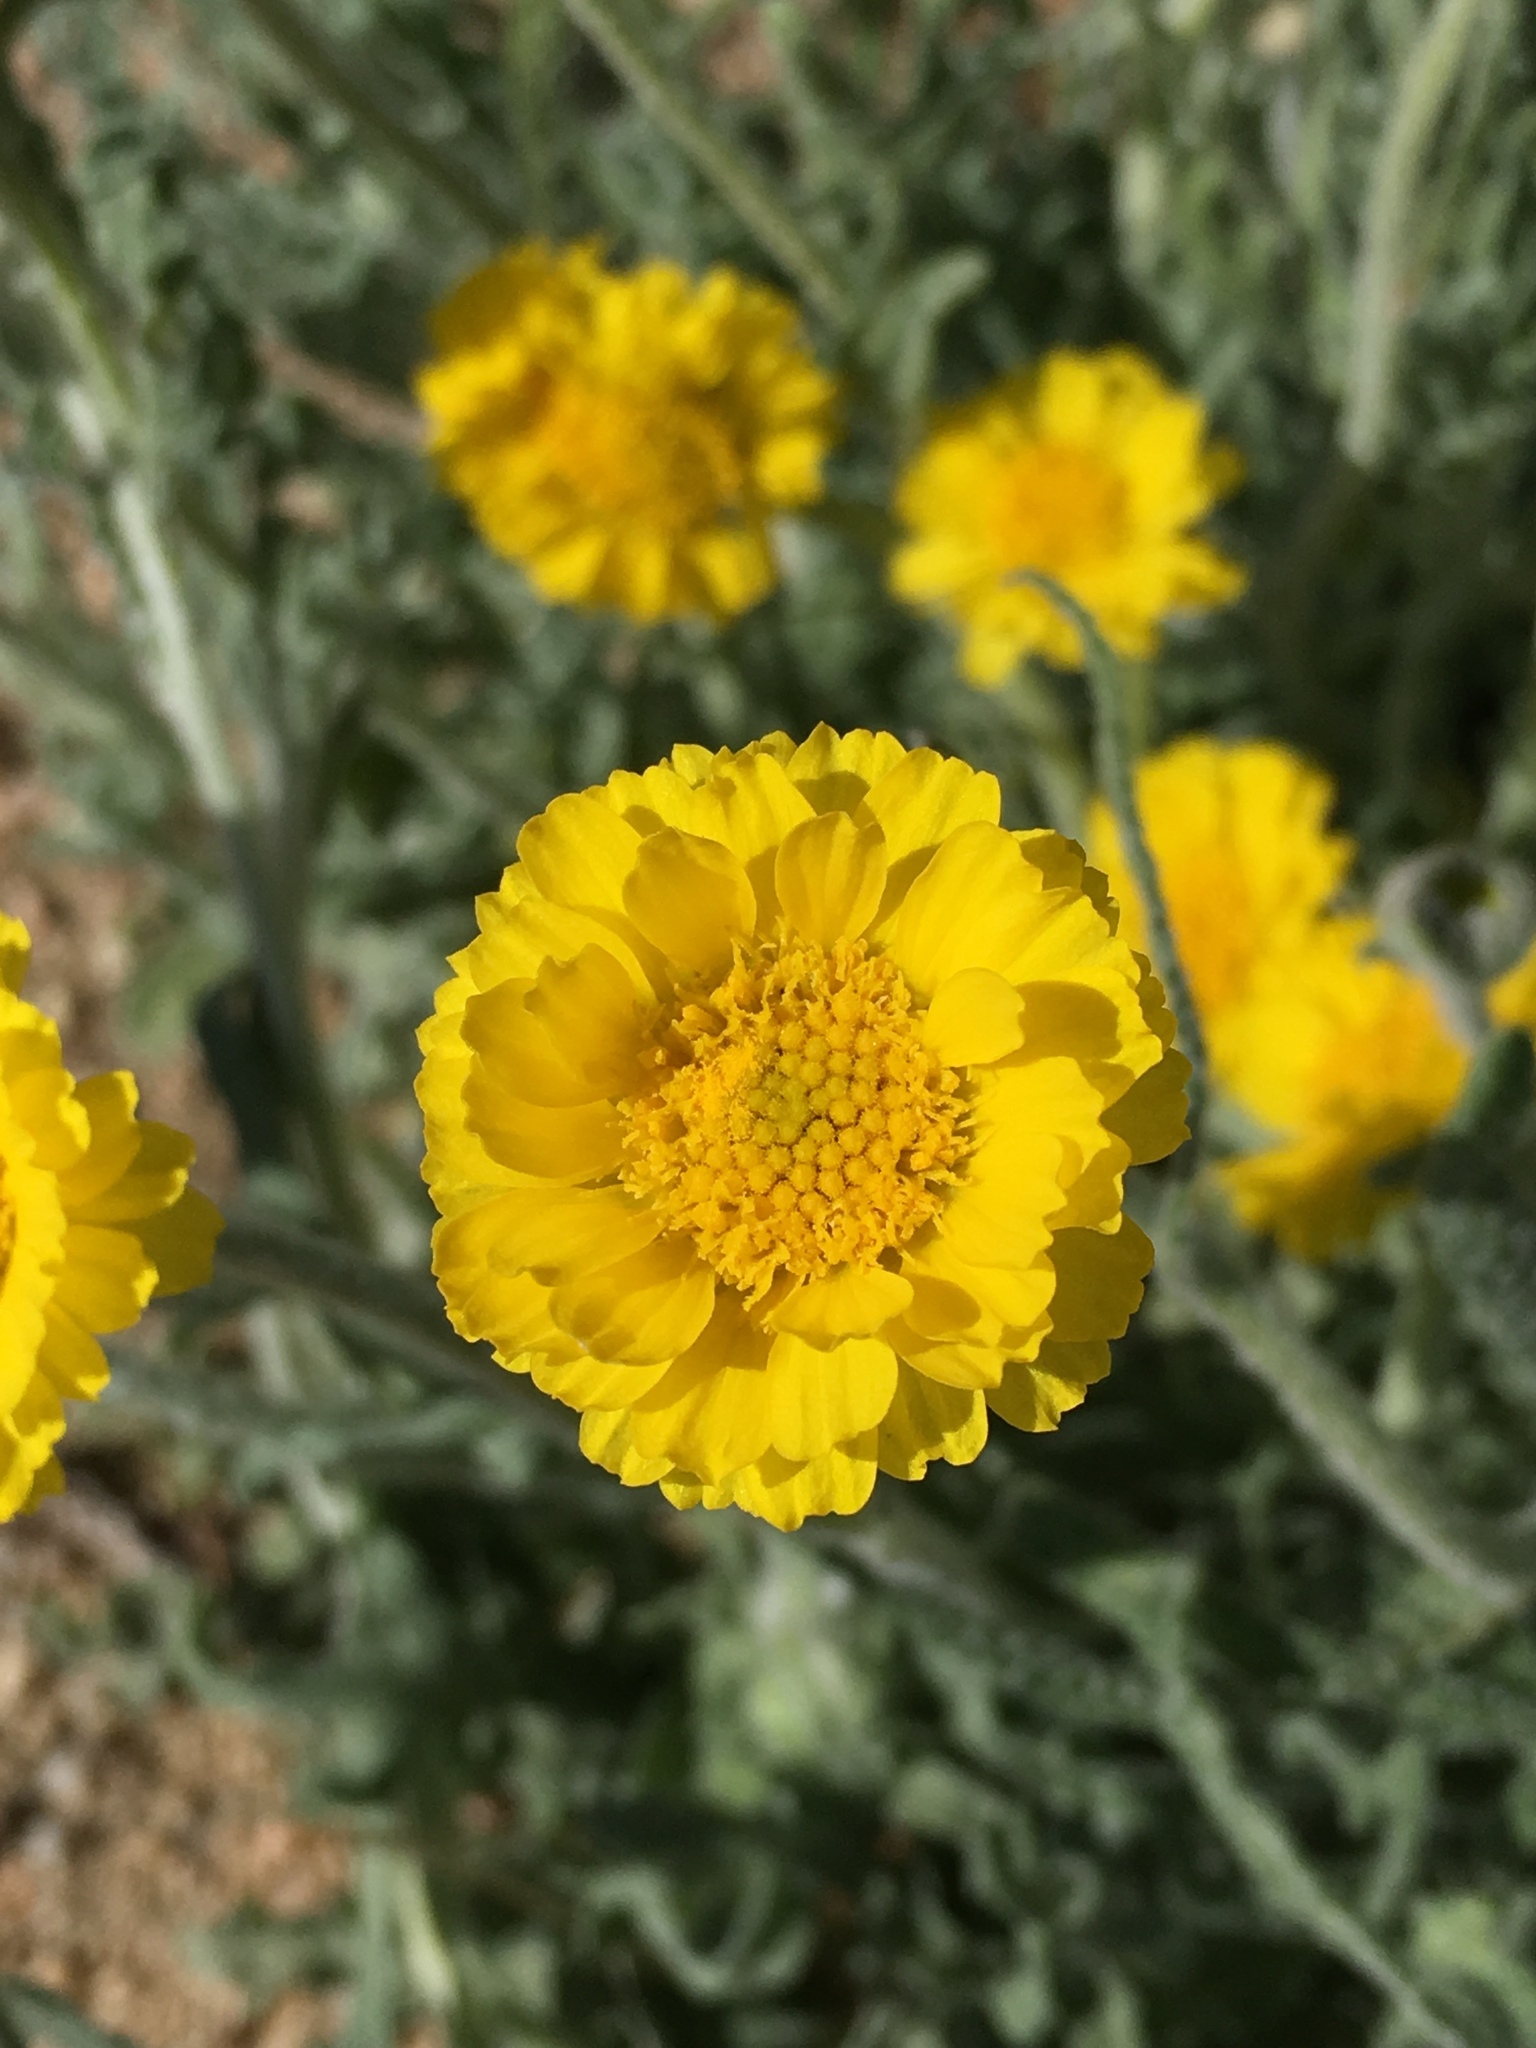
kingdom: Plantae
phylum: Tracheophyta
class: Magnoliopsida
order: Asterales
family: Asteraceae
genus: Baileya
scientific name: Baileya multiradiata
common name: Desert-marigold
